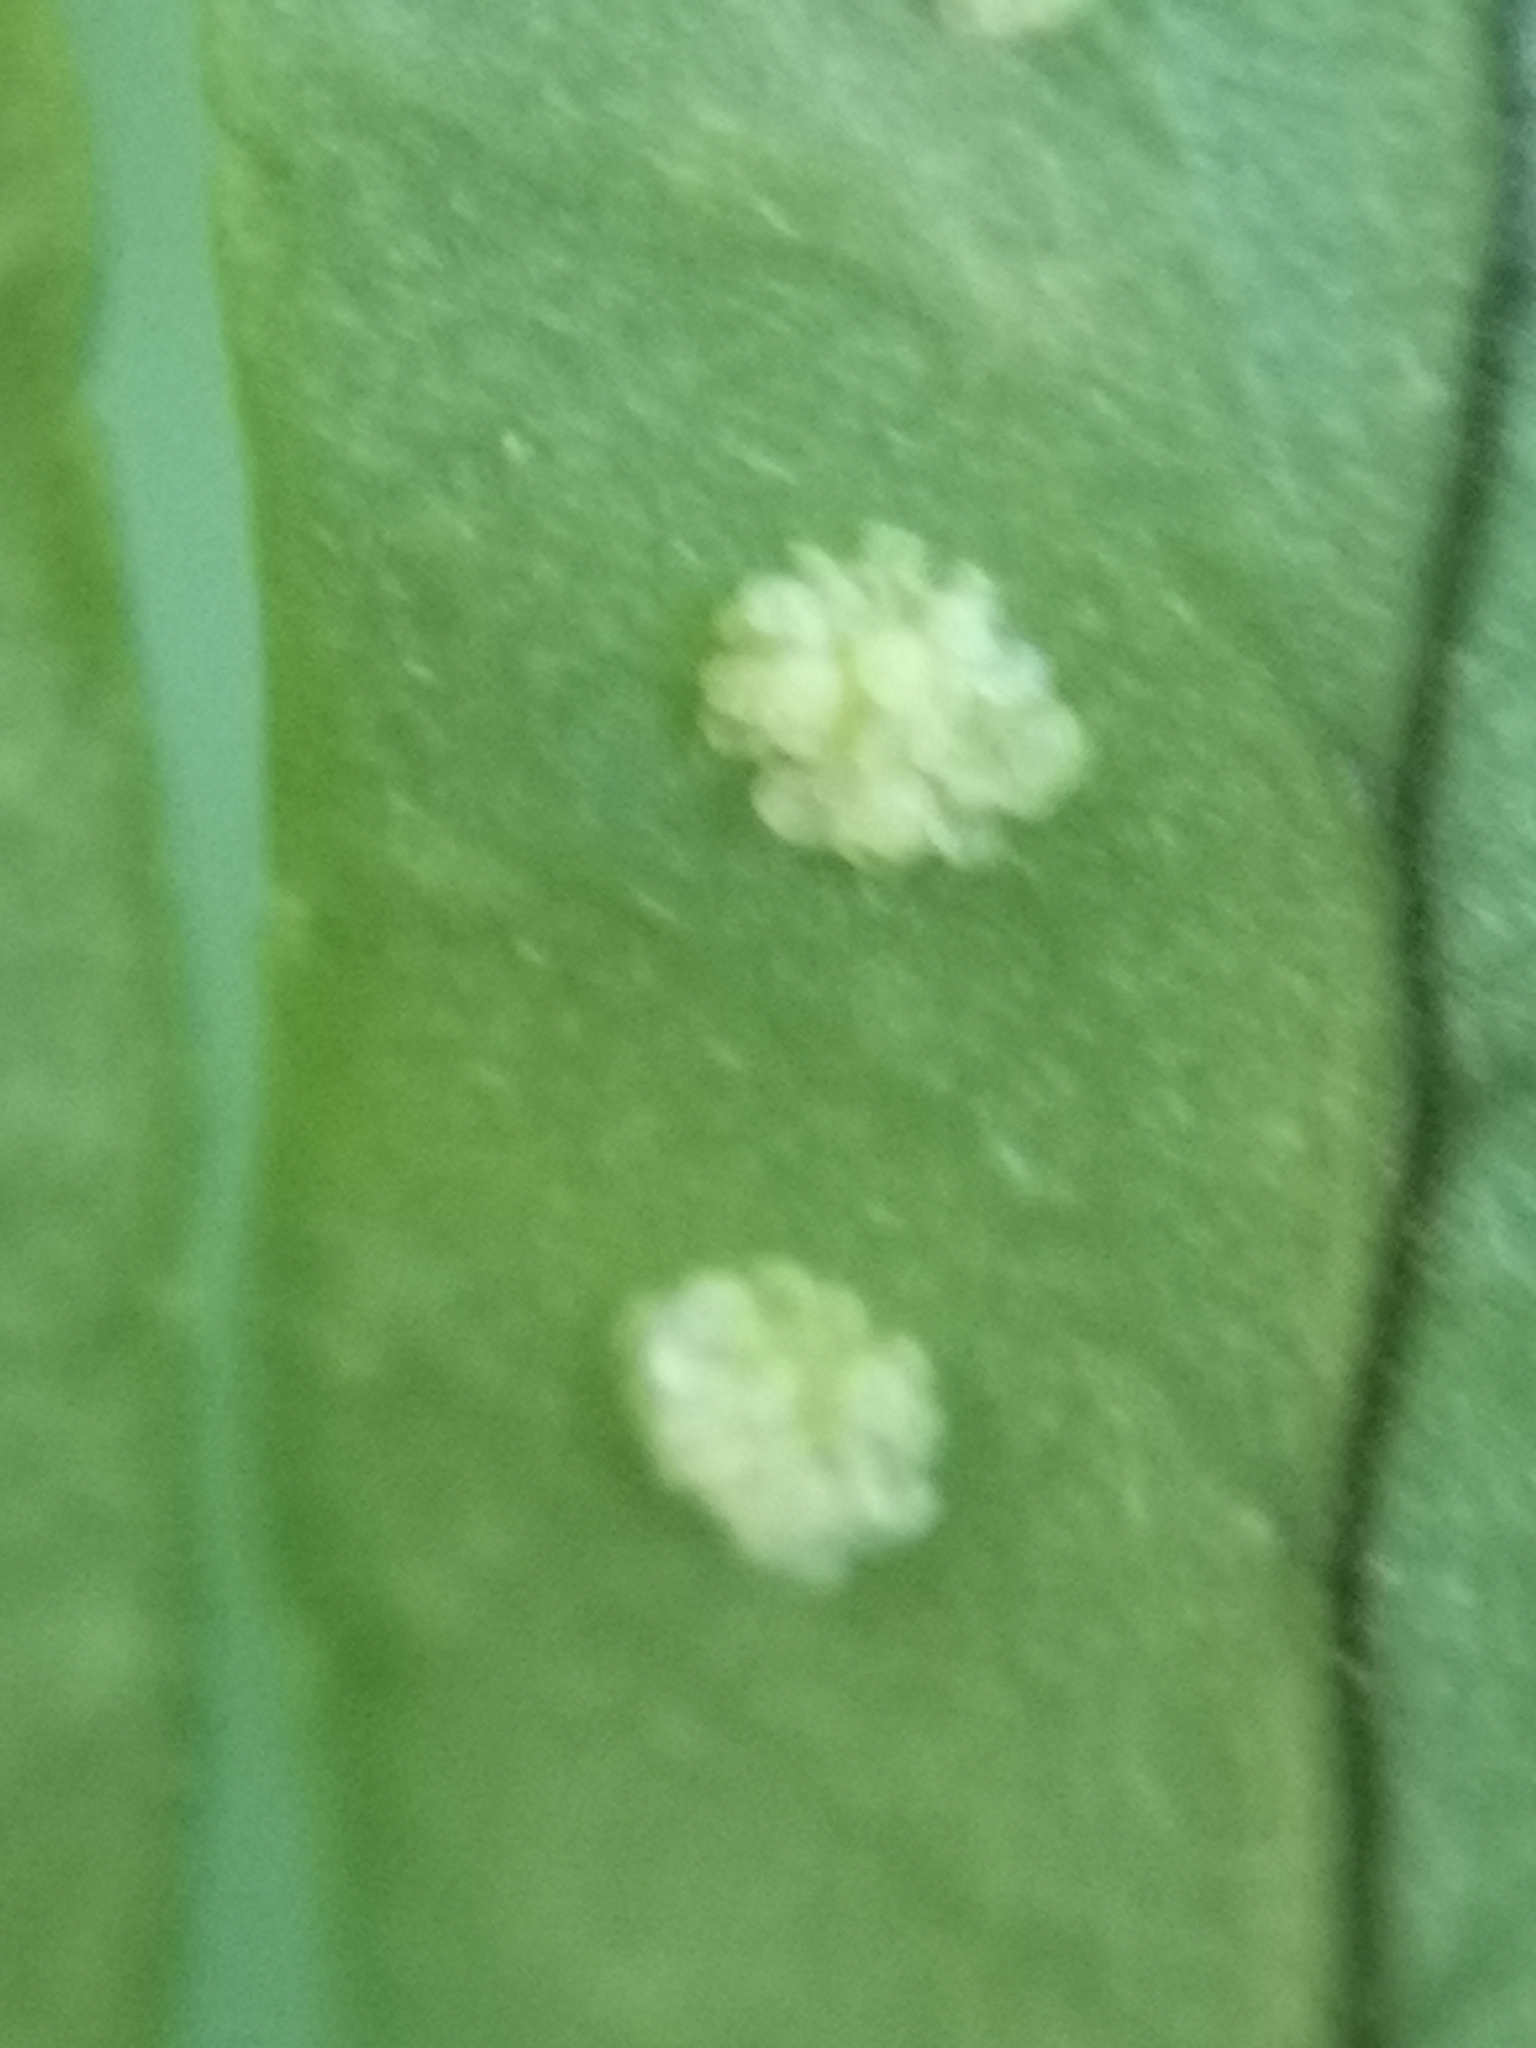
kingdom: Plantae
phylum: Tracheophyta
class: Polypodiopsida
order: Polypodiales
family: Polypodiaceae
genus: Polypodium
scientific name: Polypodium cambricum
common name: Southern polypody
